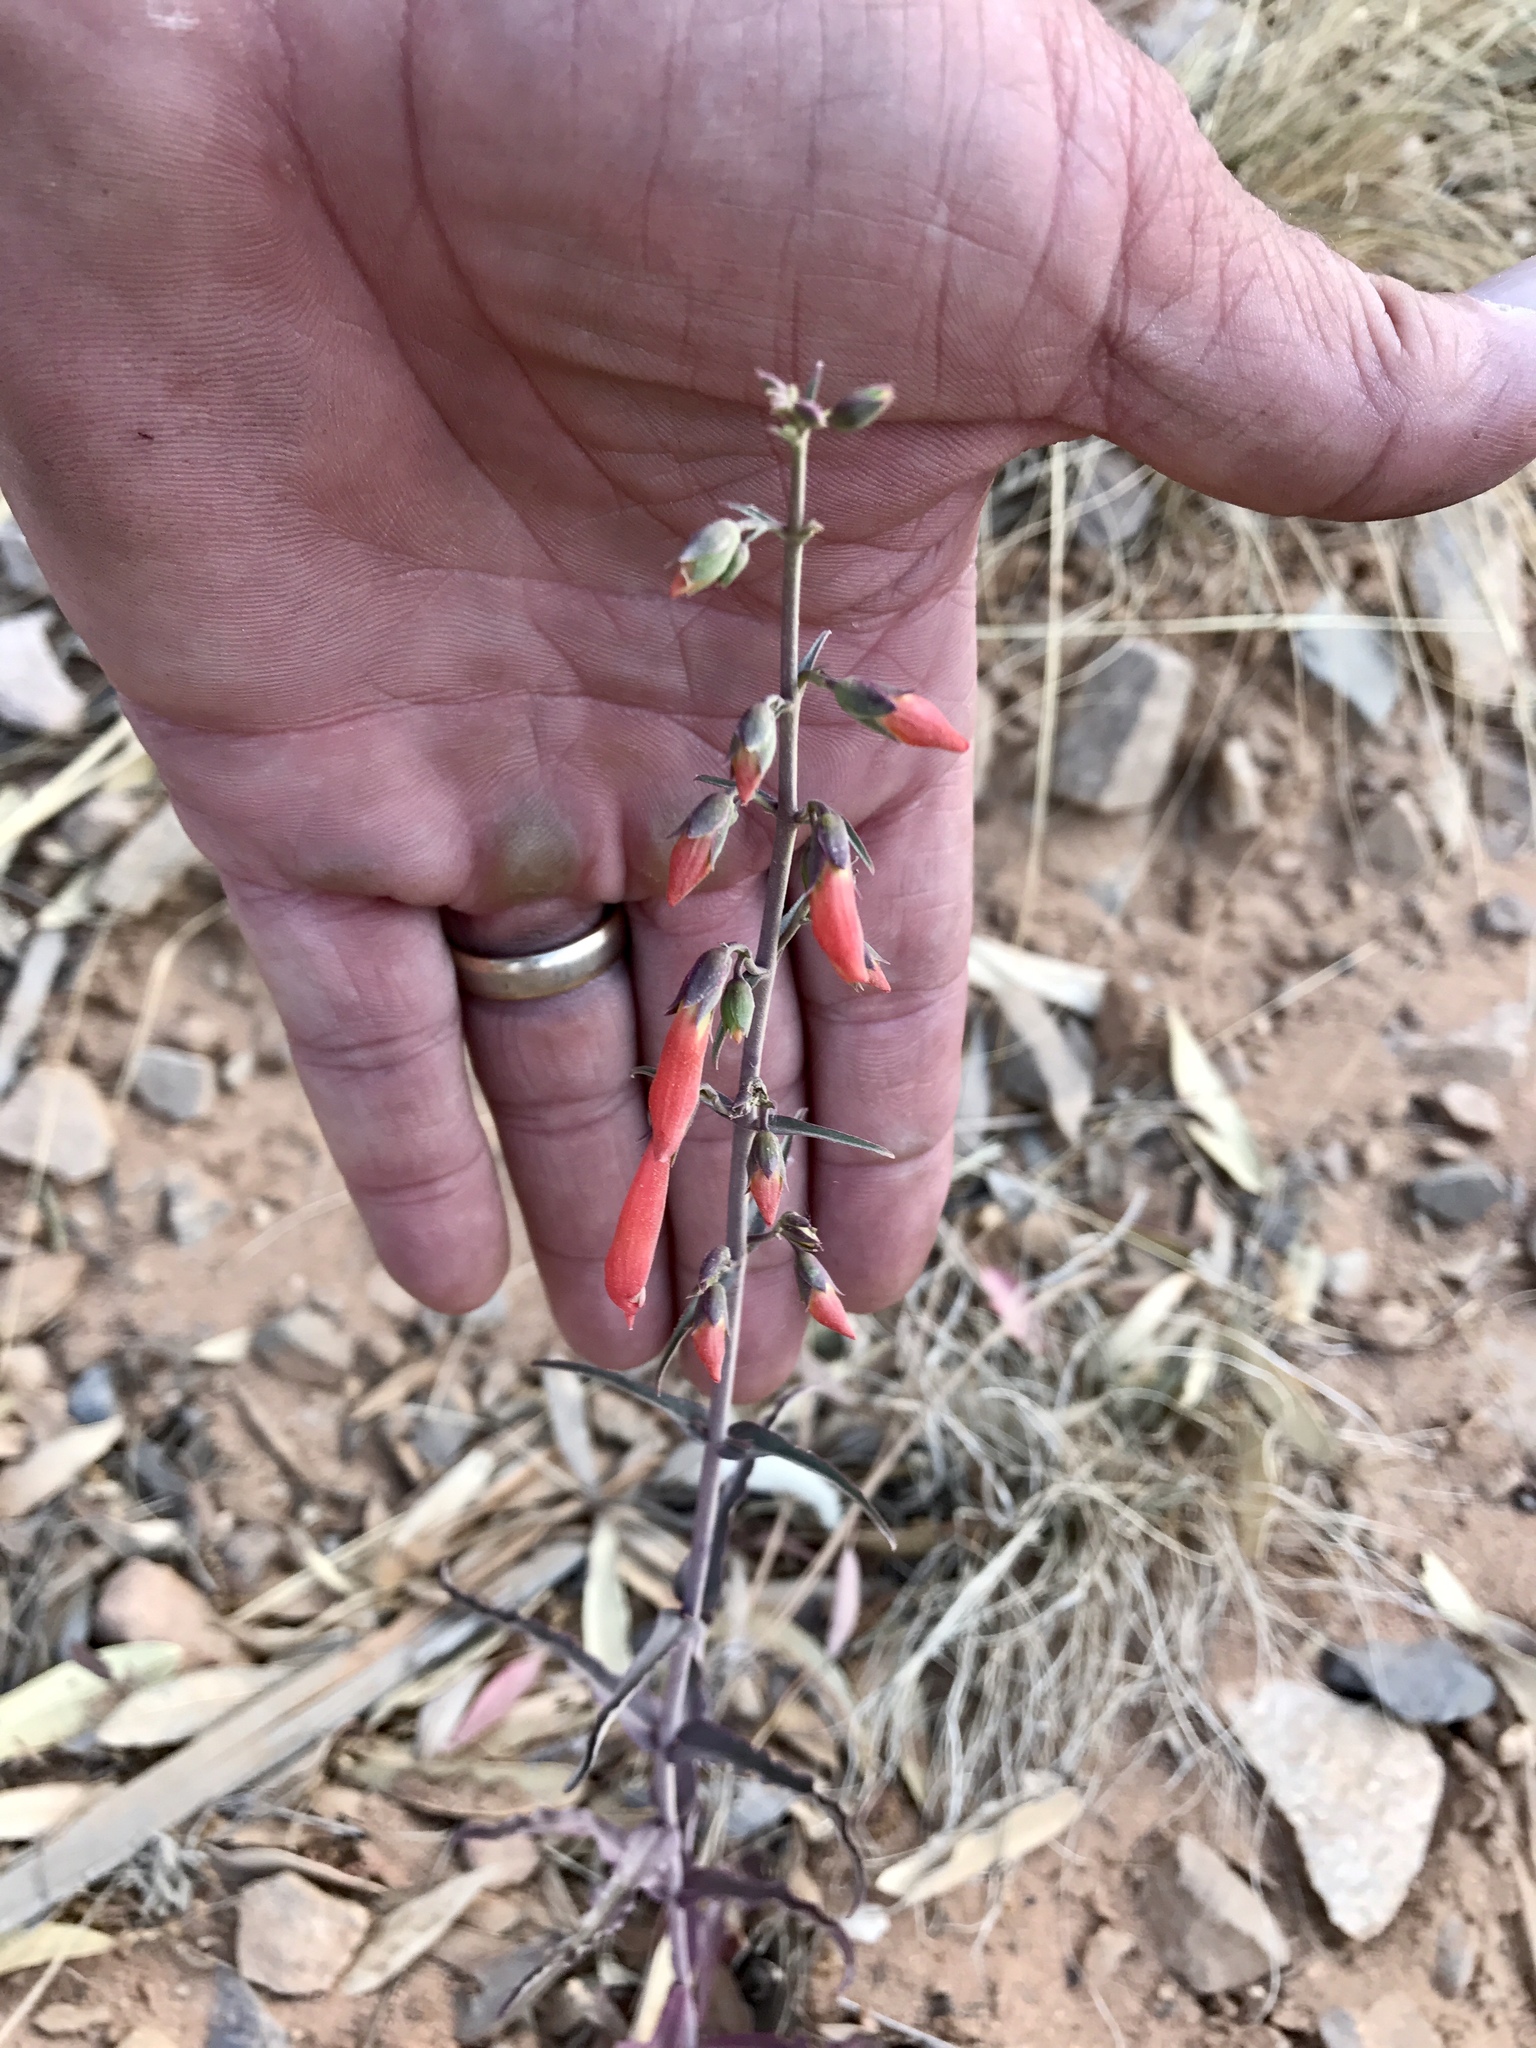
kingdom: Plantae
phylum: Tracheophyta
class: Magnoliopsida
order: Lamiales
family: Plantaginaceae
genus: Penstemon
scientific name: Penstemon barbatus
